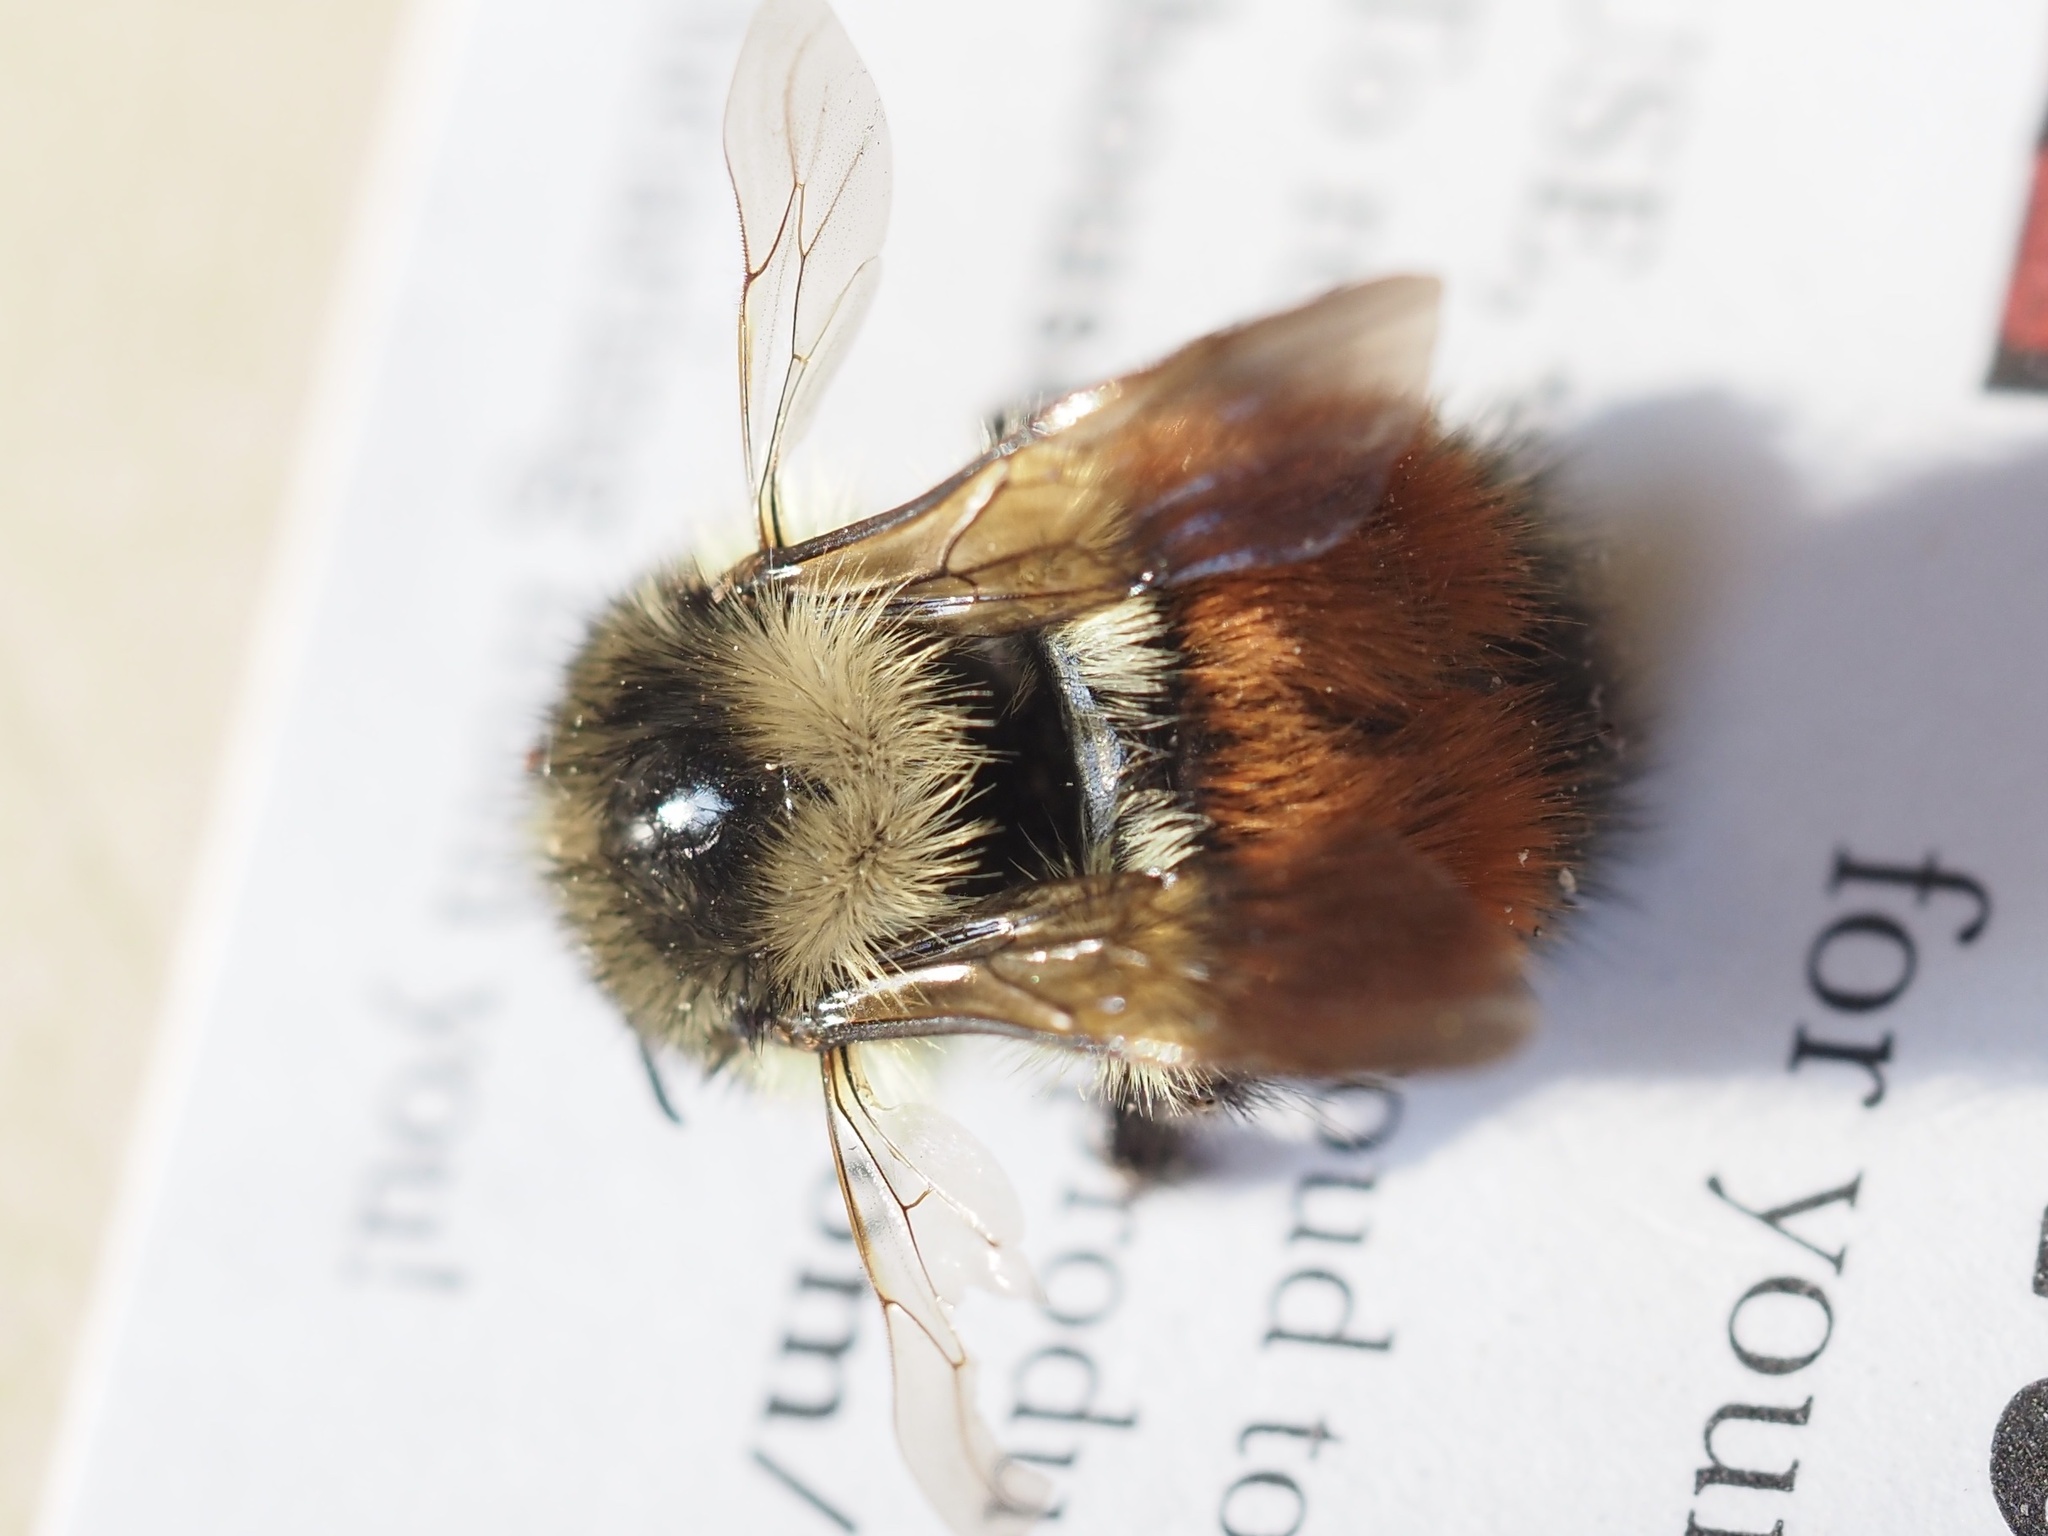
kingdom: Animalia
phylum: Arthropoda
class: Insecta
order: Hymenoptera
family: Apidae
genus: Bombus
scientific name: Bombus melanopygus
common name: Black tail bumble bee
